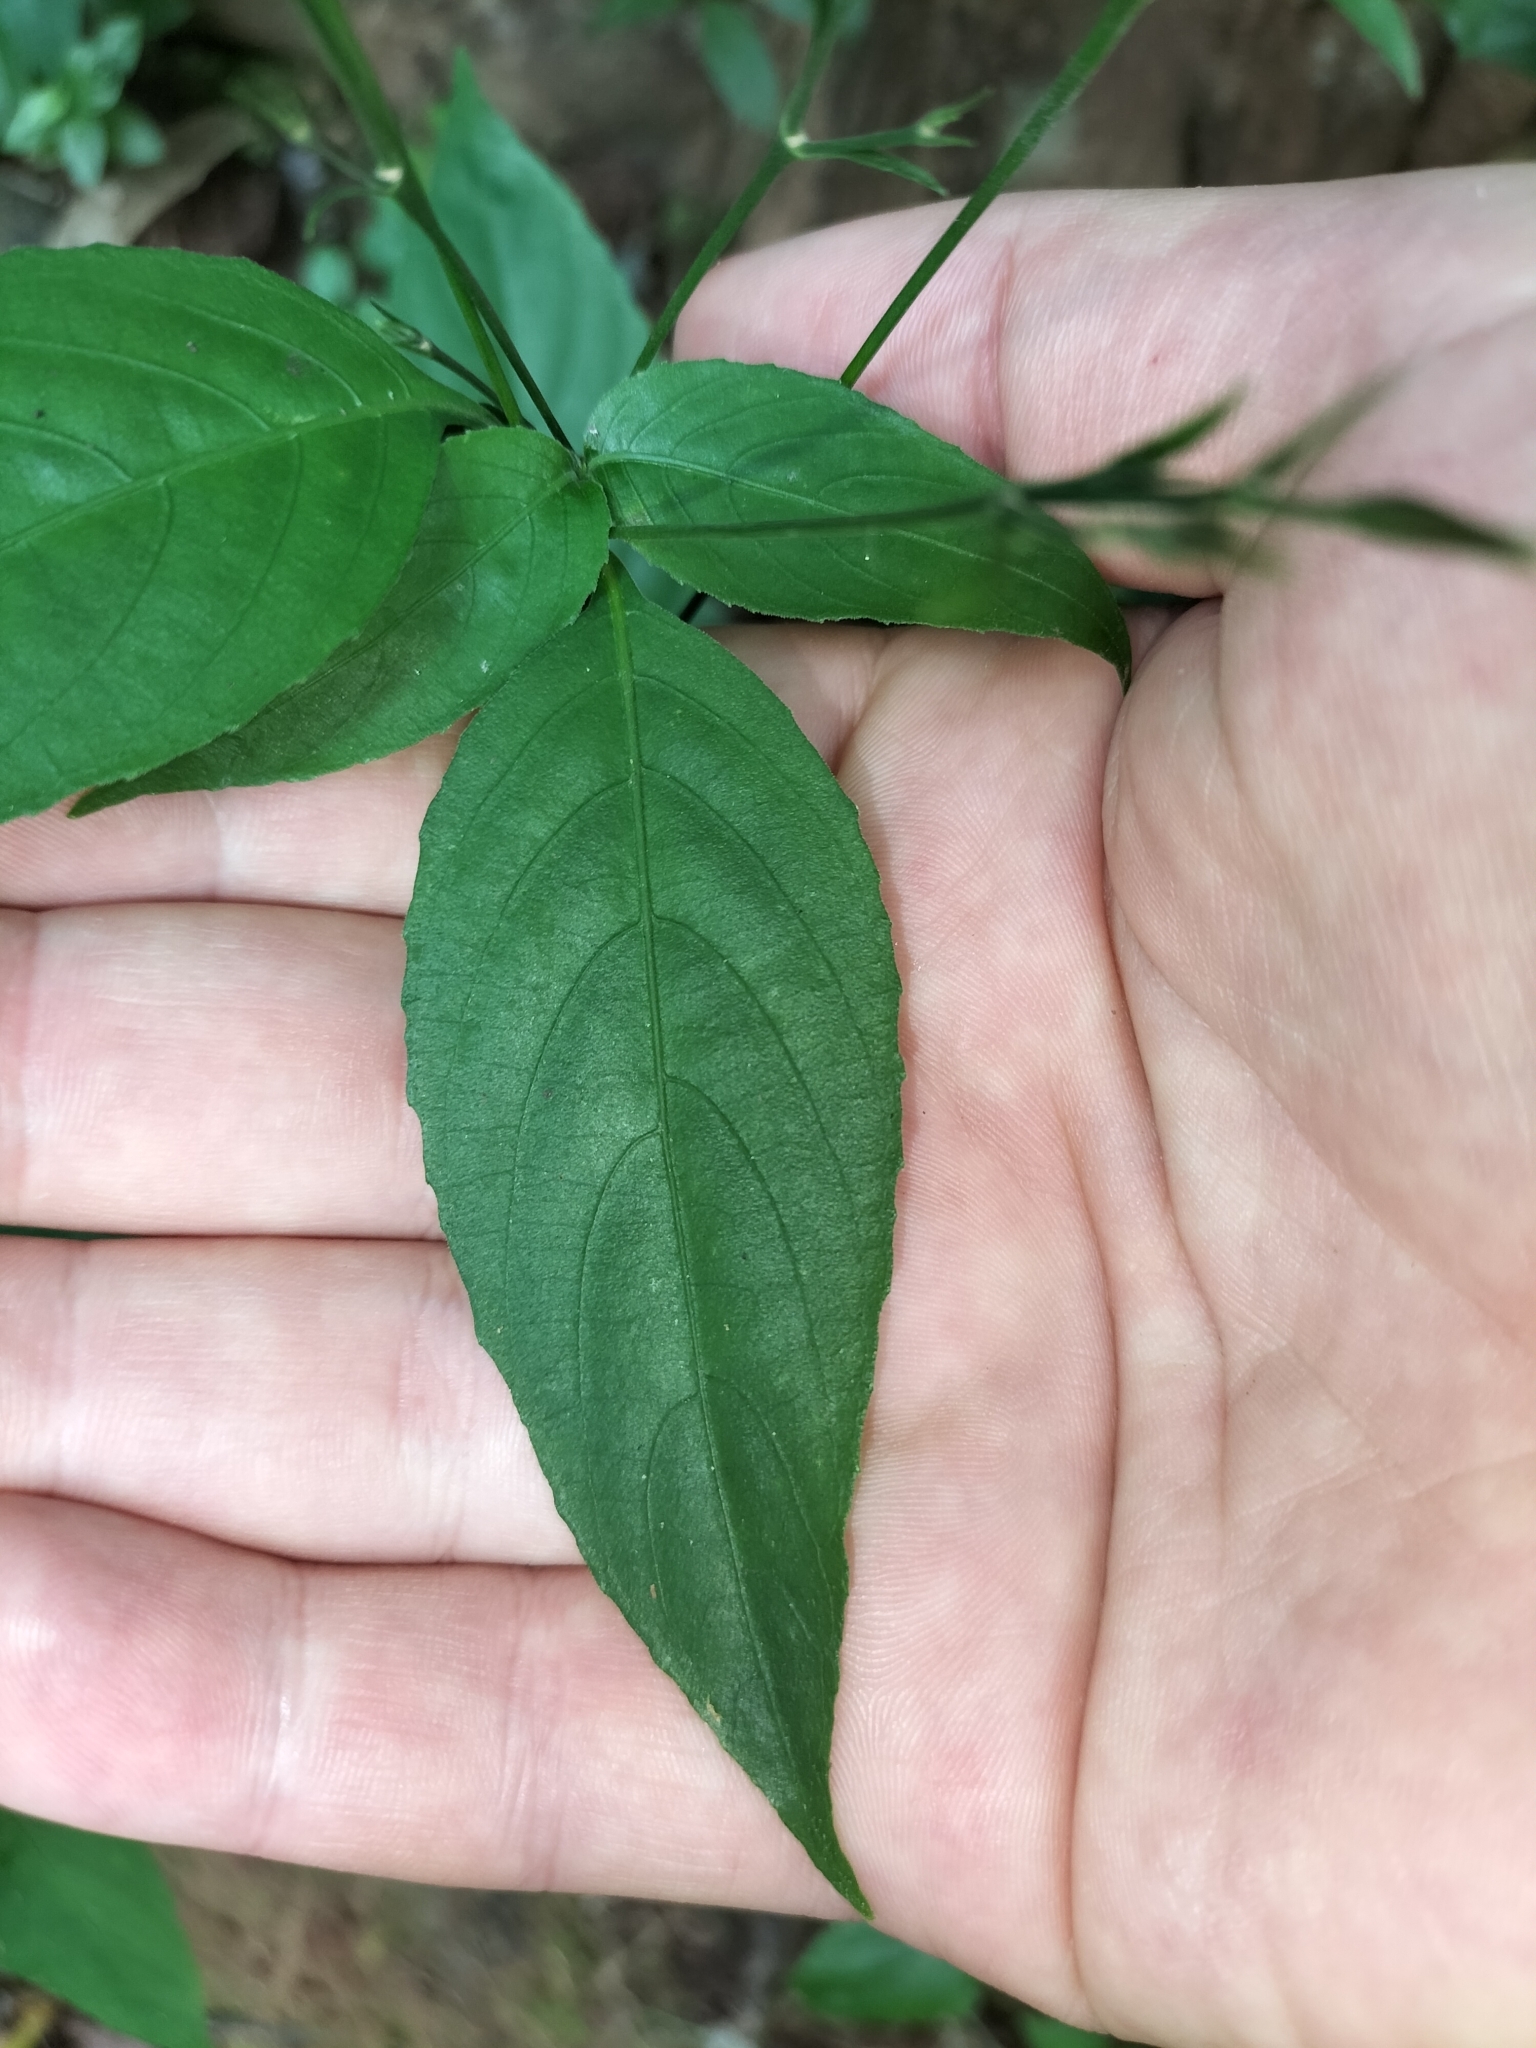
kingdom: Plantae
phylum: Tracheophyta
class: Magnoliopsida
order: Lamiales
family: Acanthaceae
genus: Ruellia
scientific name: Ruellia brevifolia
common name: Tropical wild petunia
